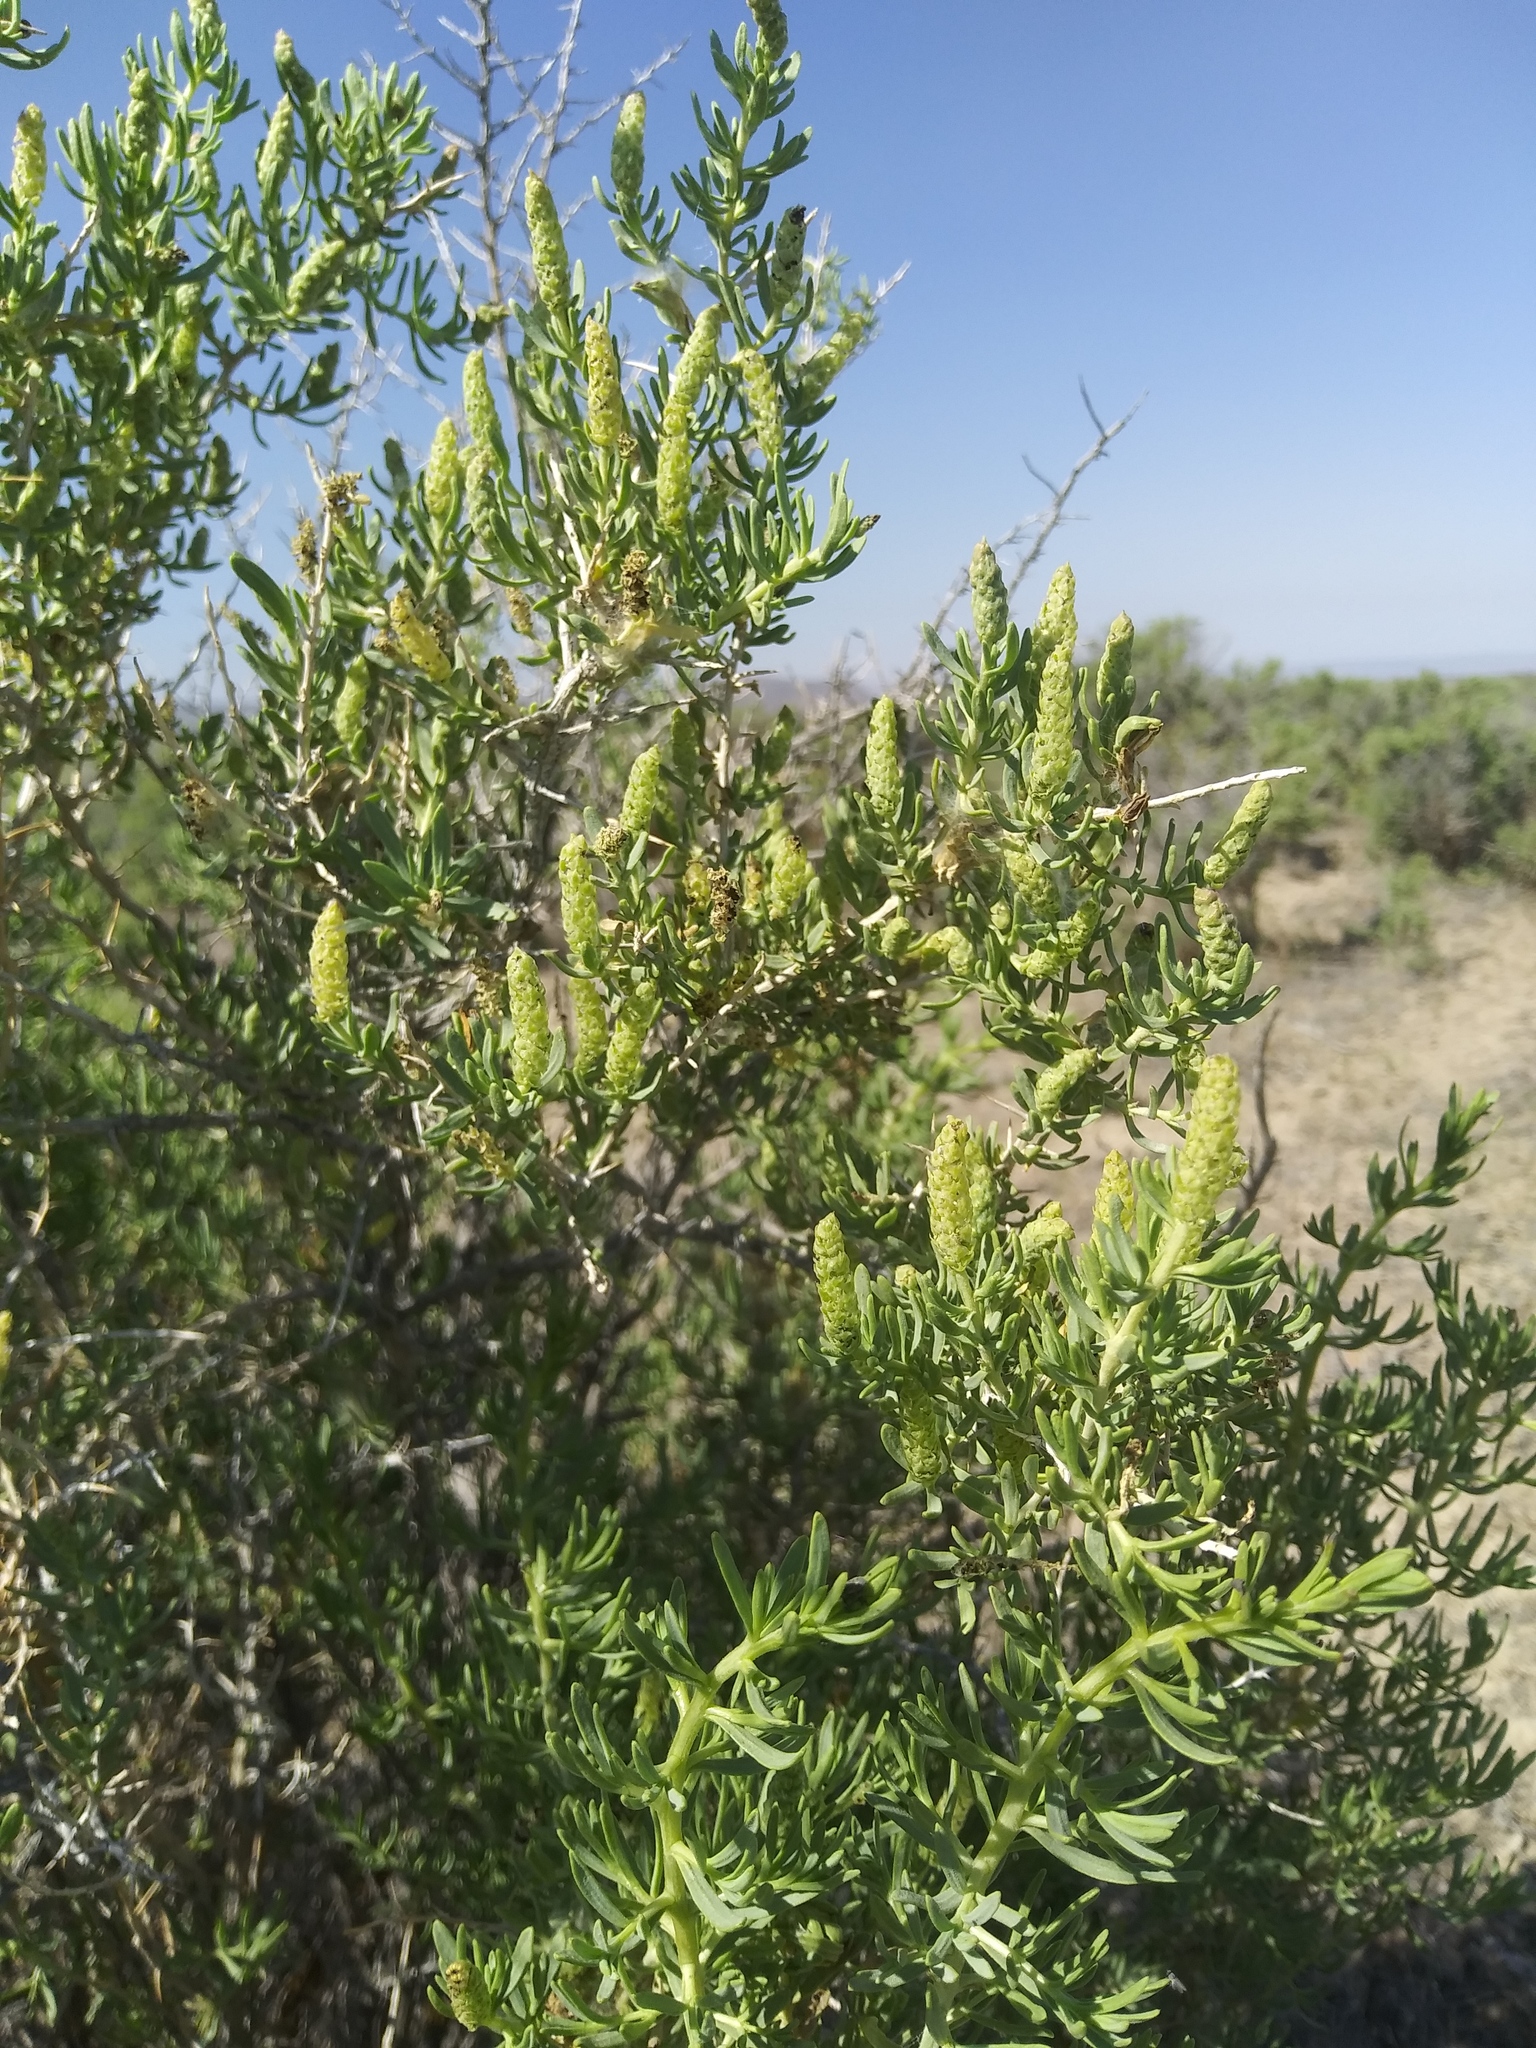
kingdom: Plantae
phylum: Tracheophyta
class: Magnoliopsida
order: Caryophyllales
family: Sarcobataceae
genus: Sarcobatus
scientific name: Sarcobatus vermiculatus
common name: Greasewood
